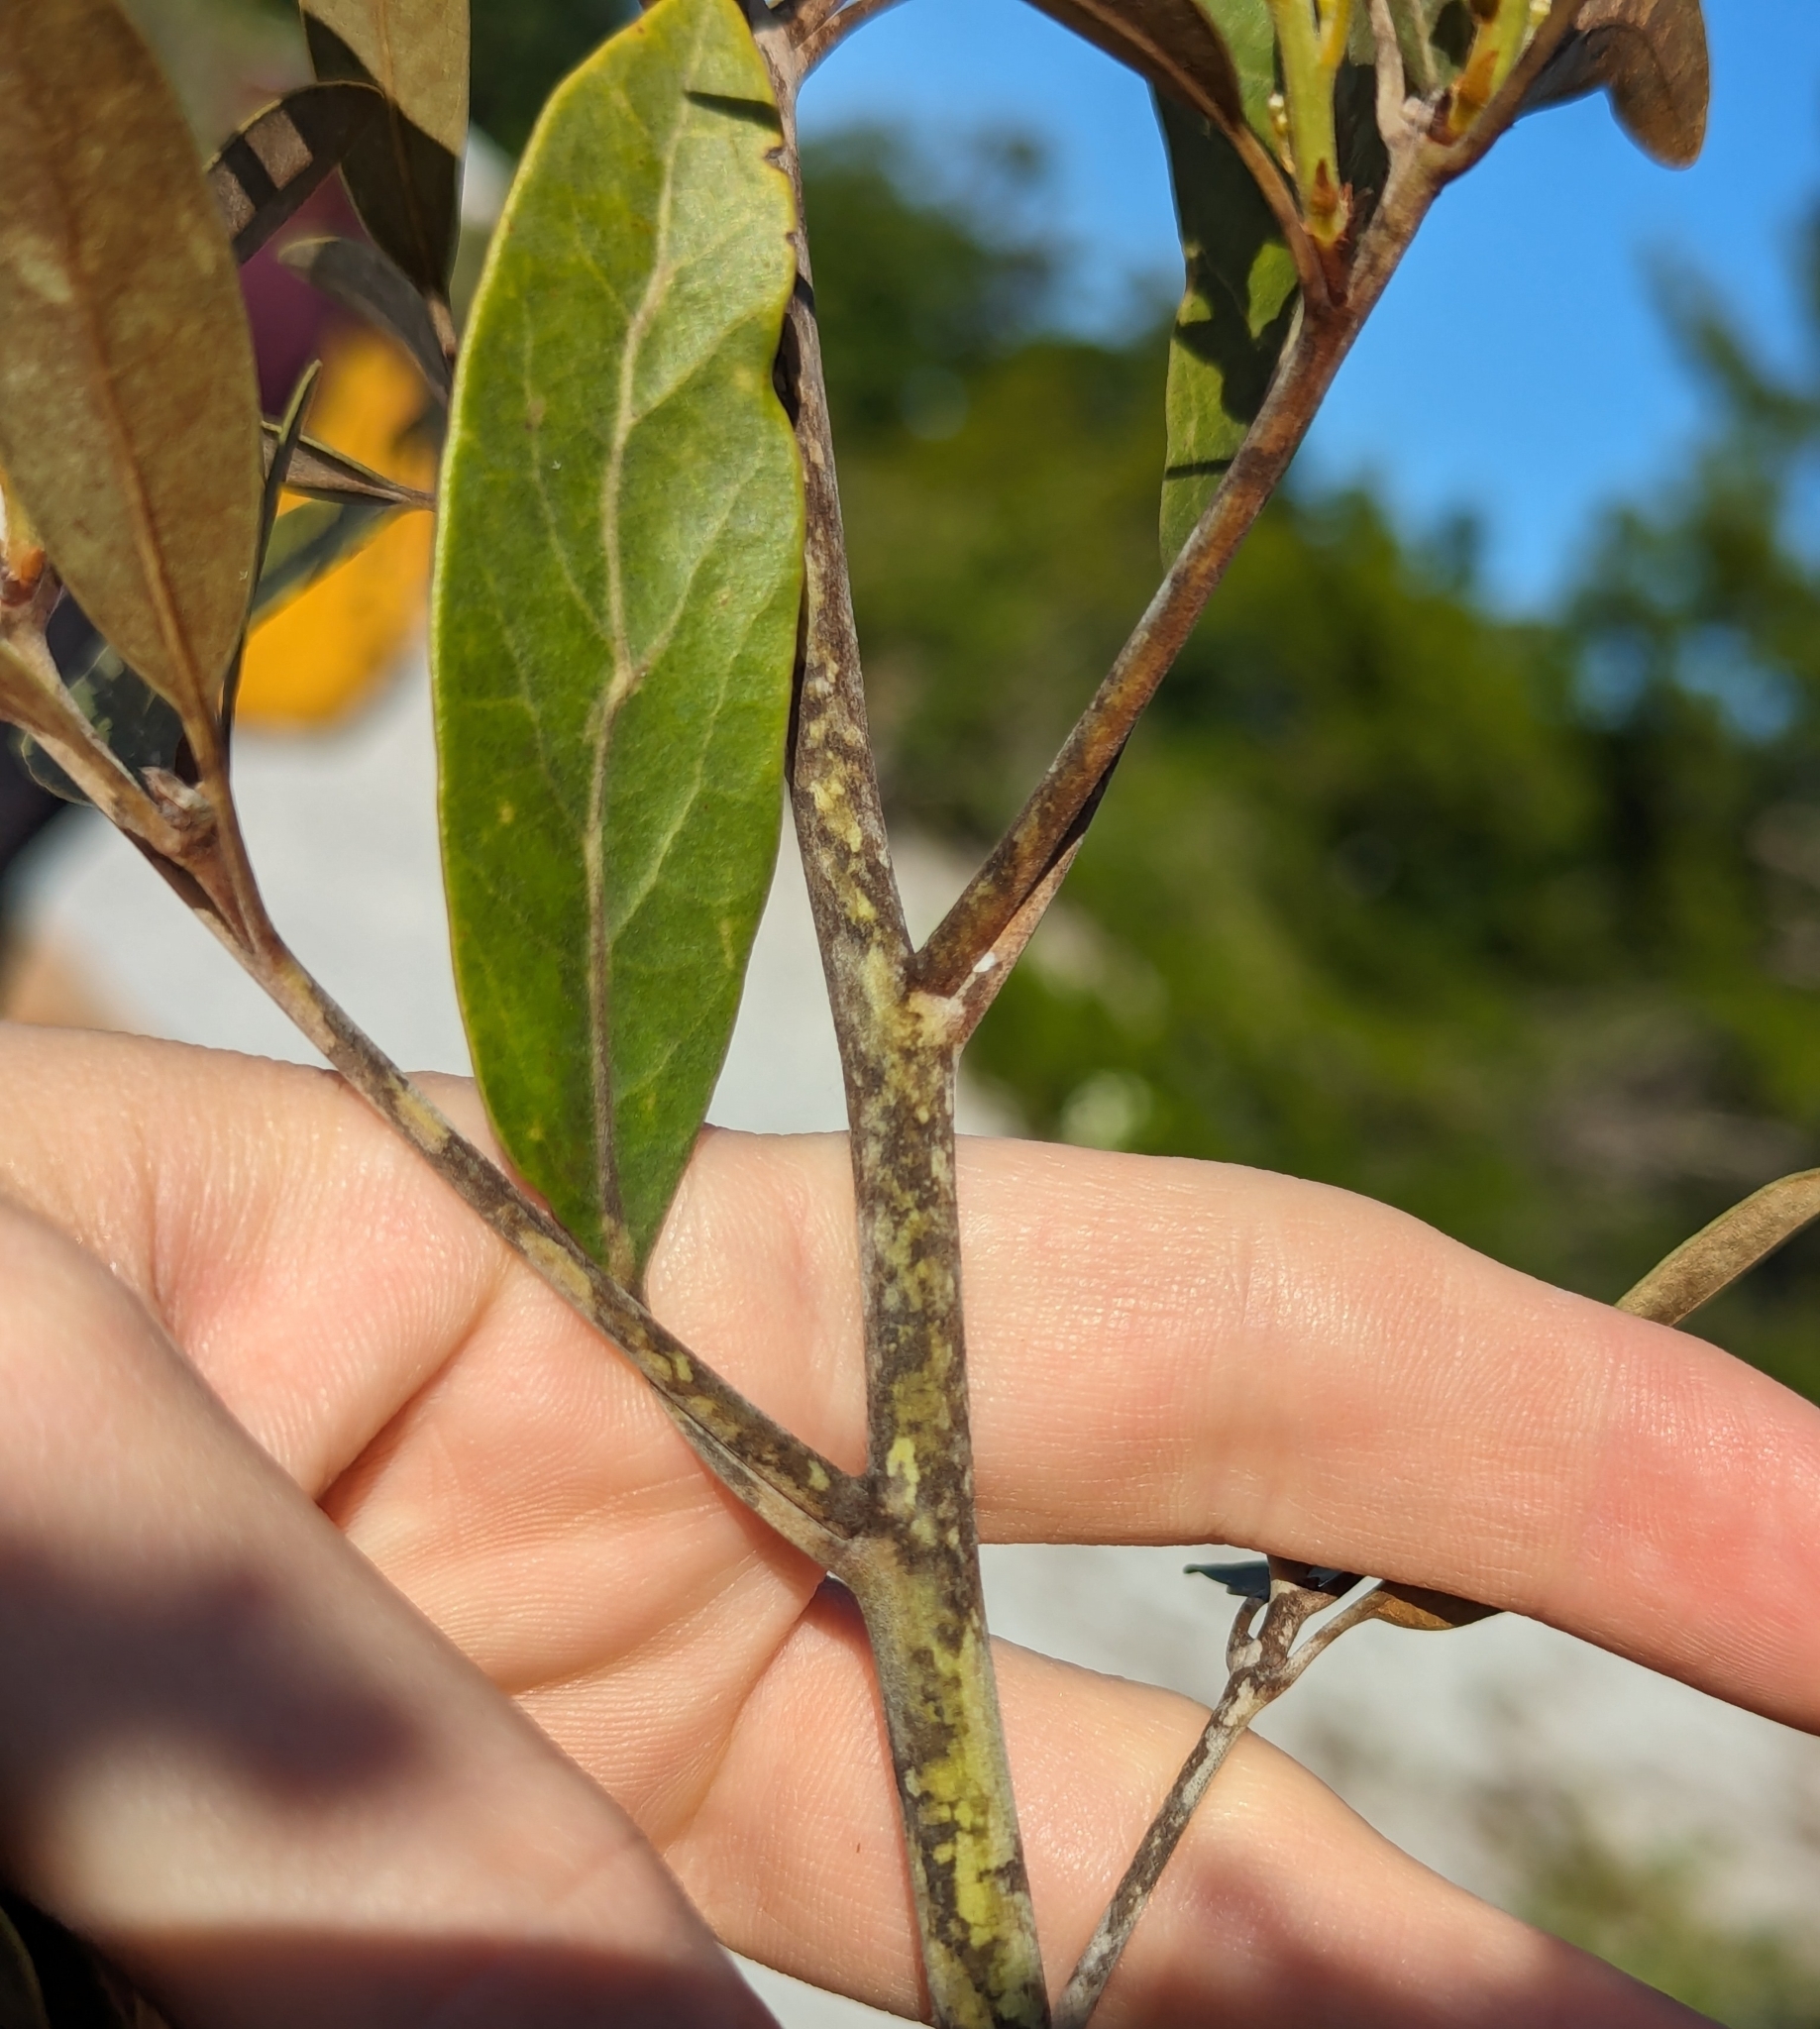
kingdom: Plantae
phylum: Tracheophyta
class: Magnoliopsida
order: Laurales
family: Lauraceae
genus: Persea
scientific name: Persea humilis
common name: Silkbay
